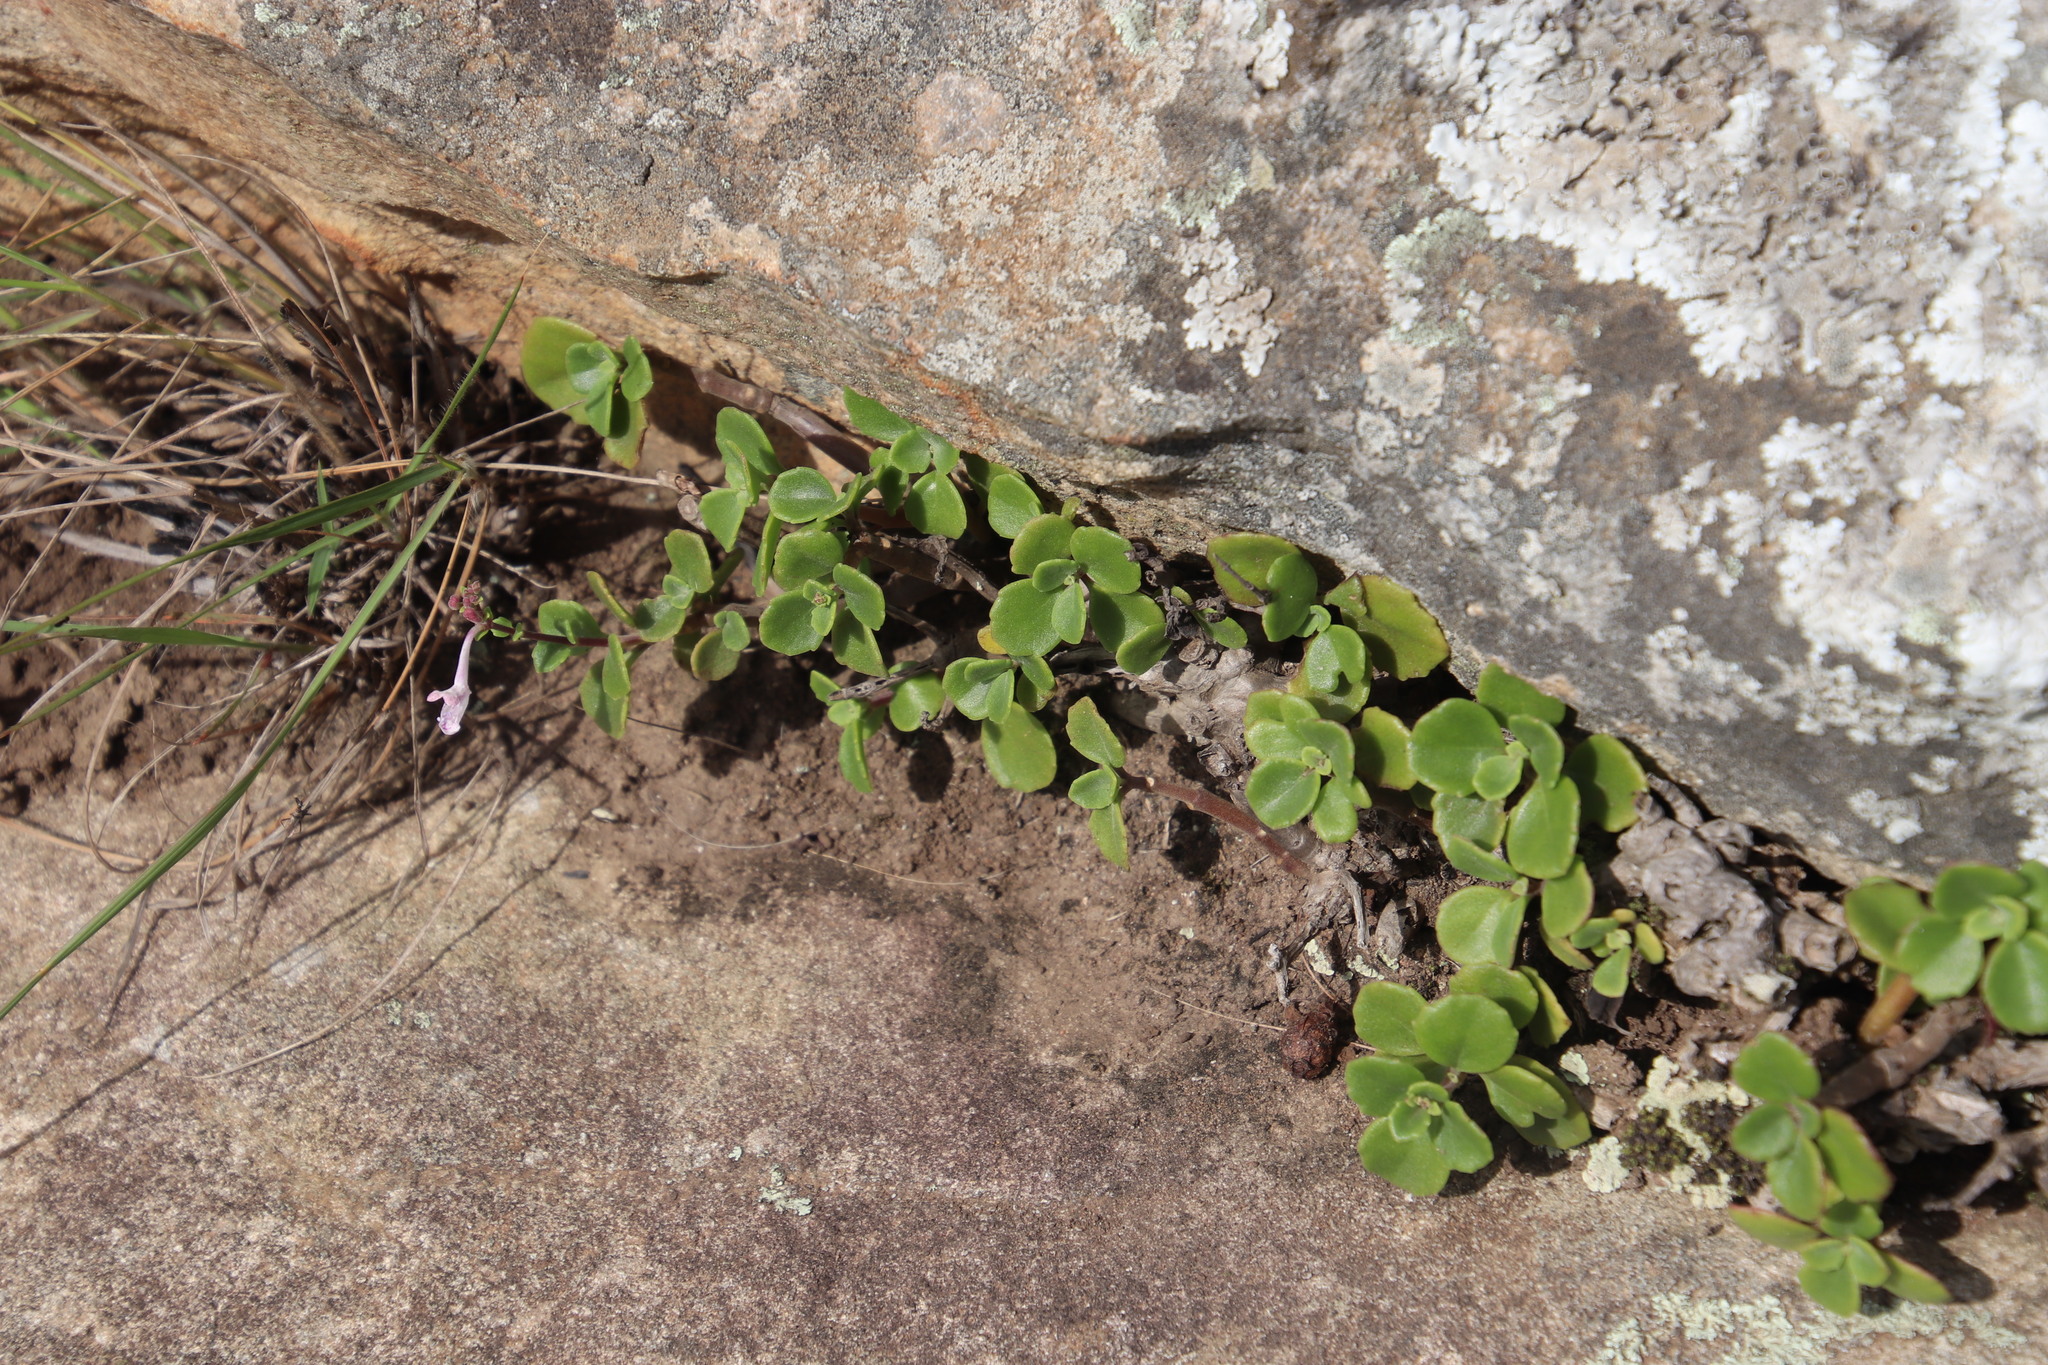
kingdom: Plantae
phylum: Tracheophyta
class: Magnoliopsida
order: Lamiales
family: Lamiaceae
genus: Aeollanthus
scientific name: Aeollanthus parvifolius
